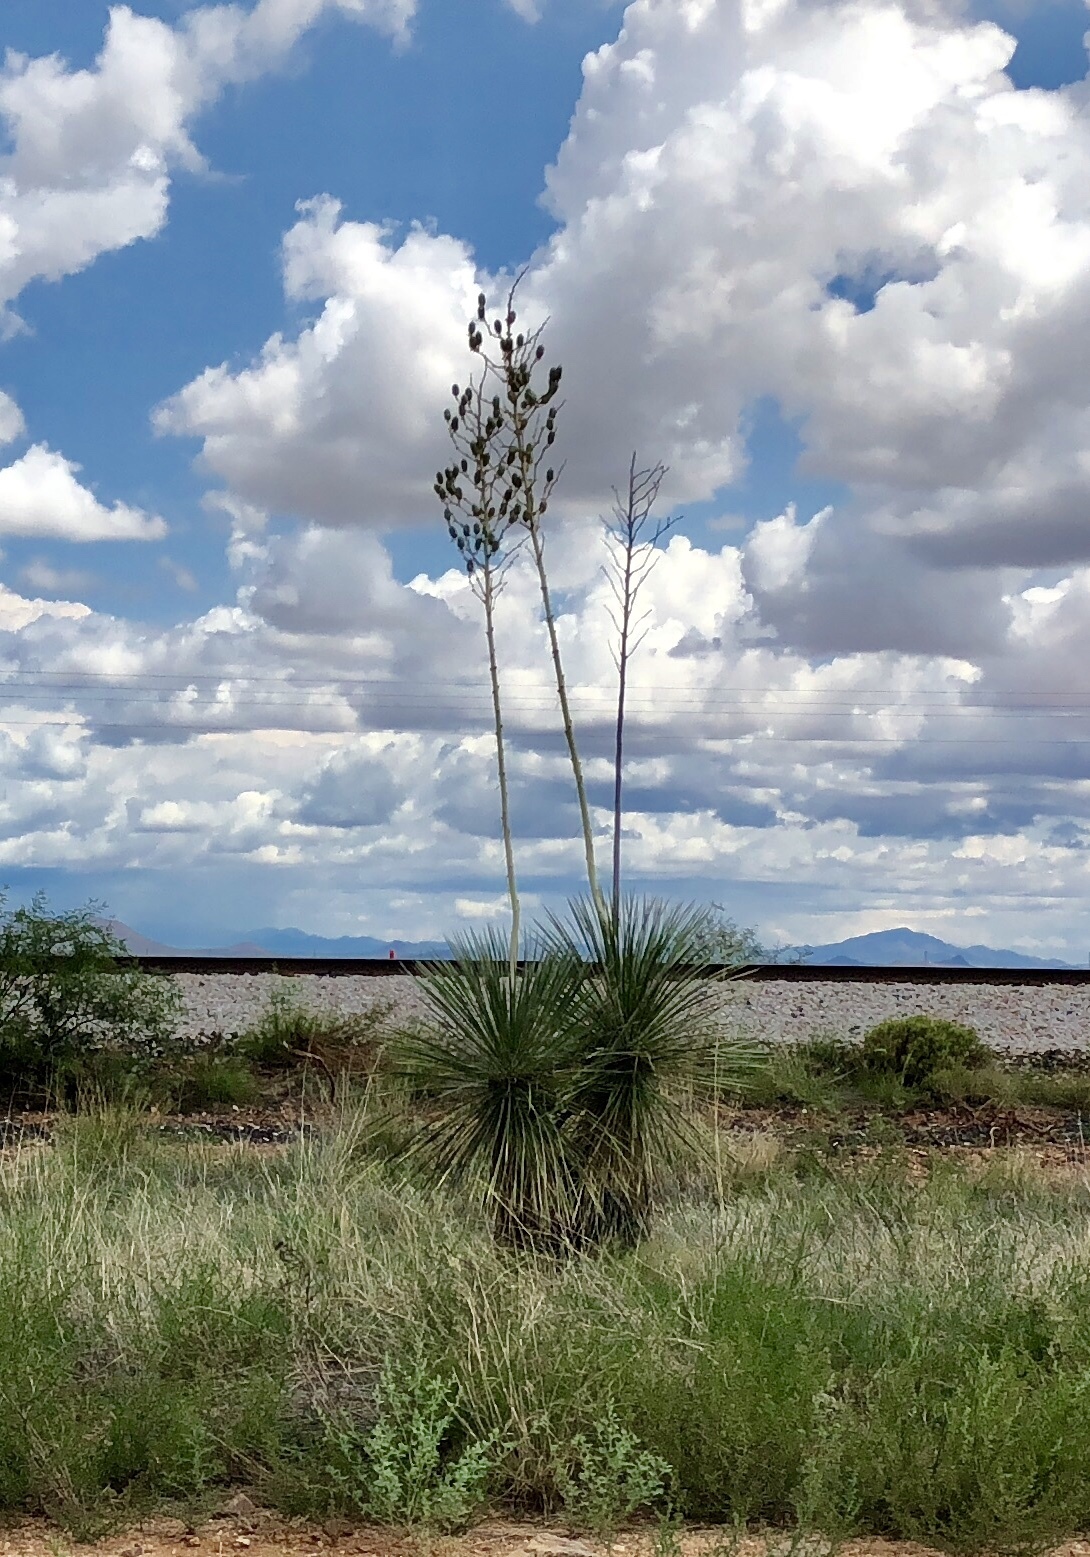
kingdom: Plantae
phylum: Tracheophyta
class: Liliopsida
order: Asparagales
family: Asparagaceae
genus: Yucca
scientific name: Yucca elata
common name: Palmella
